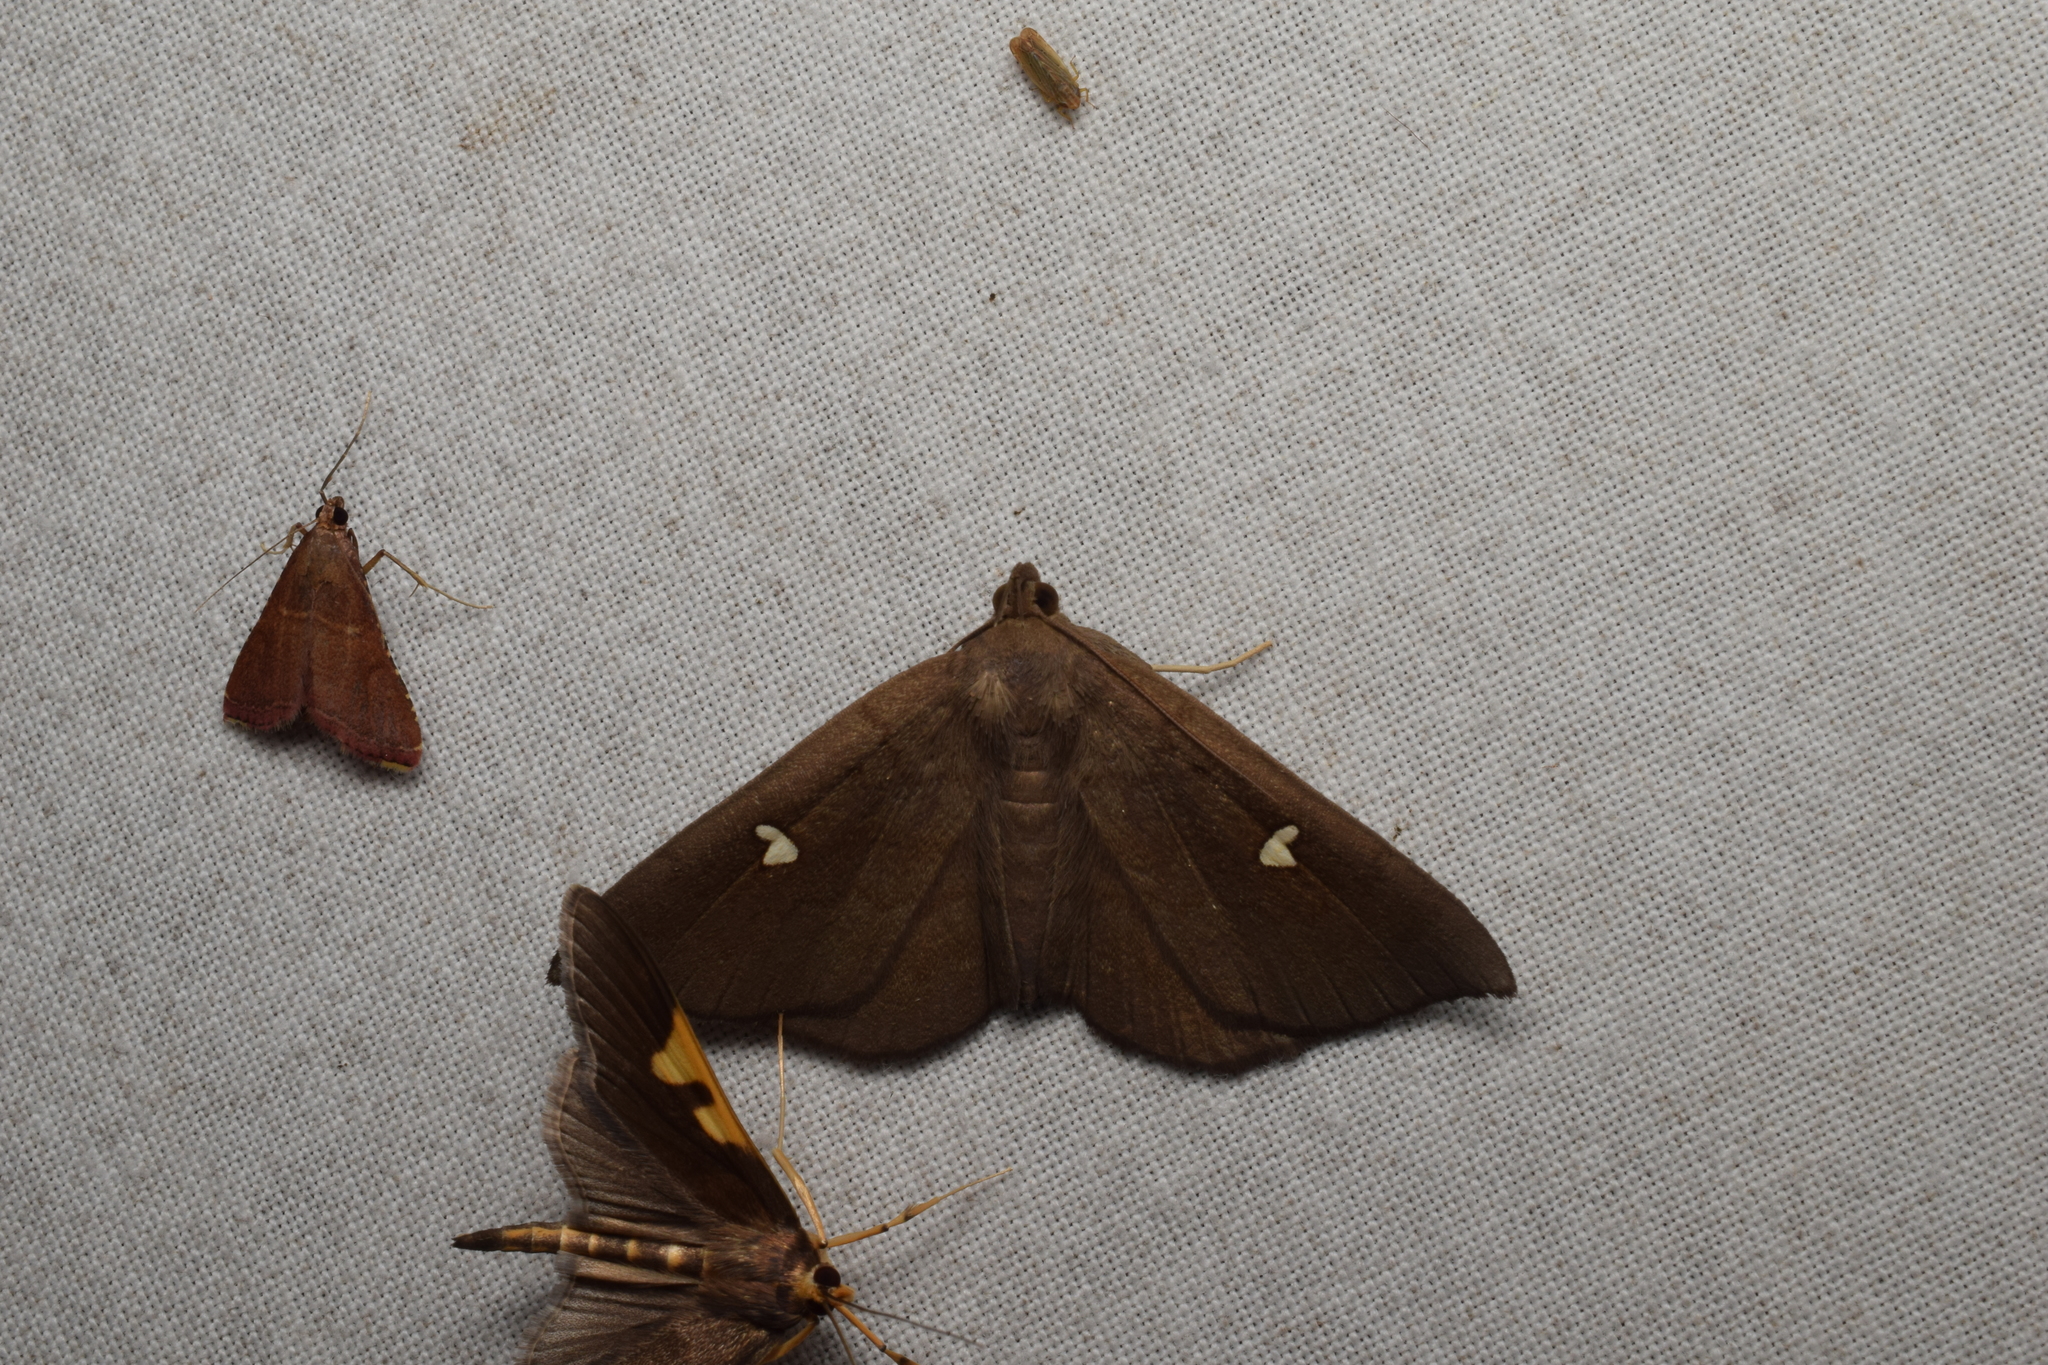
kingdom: Animalia
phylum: Arthropoda
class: Insecta
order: Lepidoptera
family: Erebidae
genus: Edessena
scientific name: Edessena hamada
